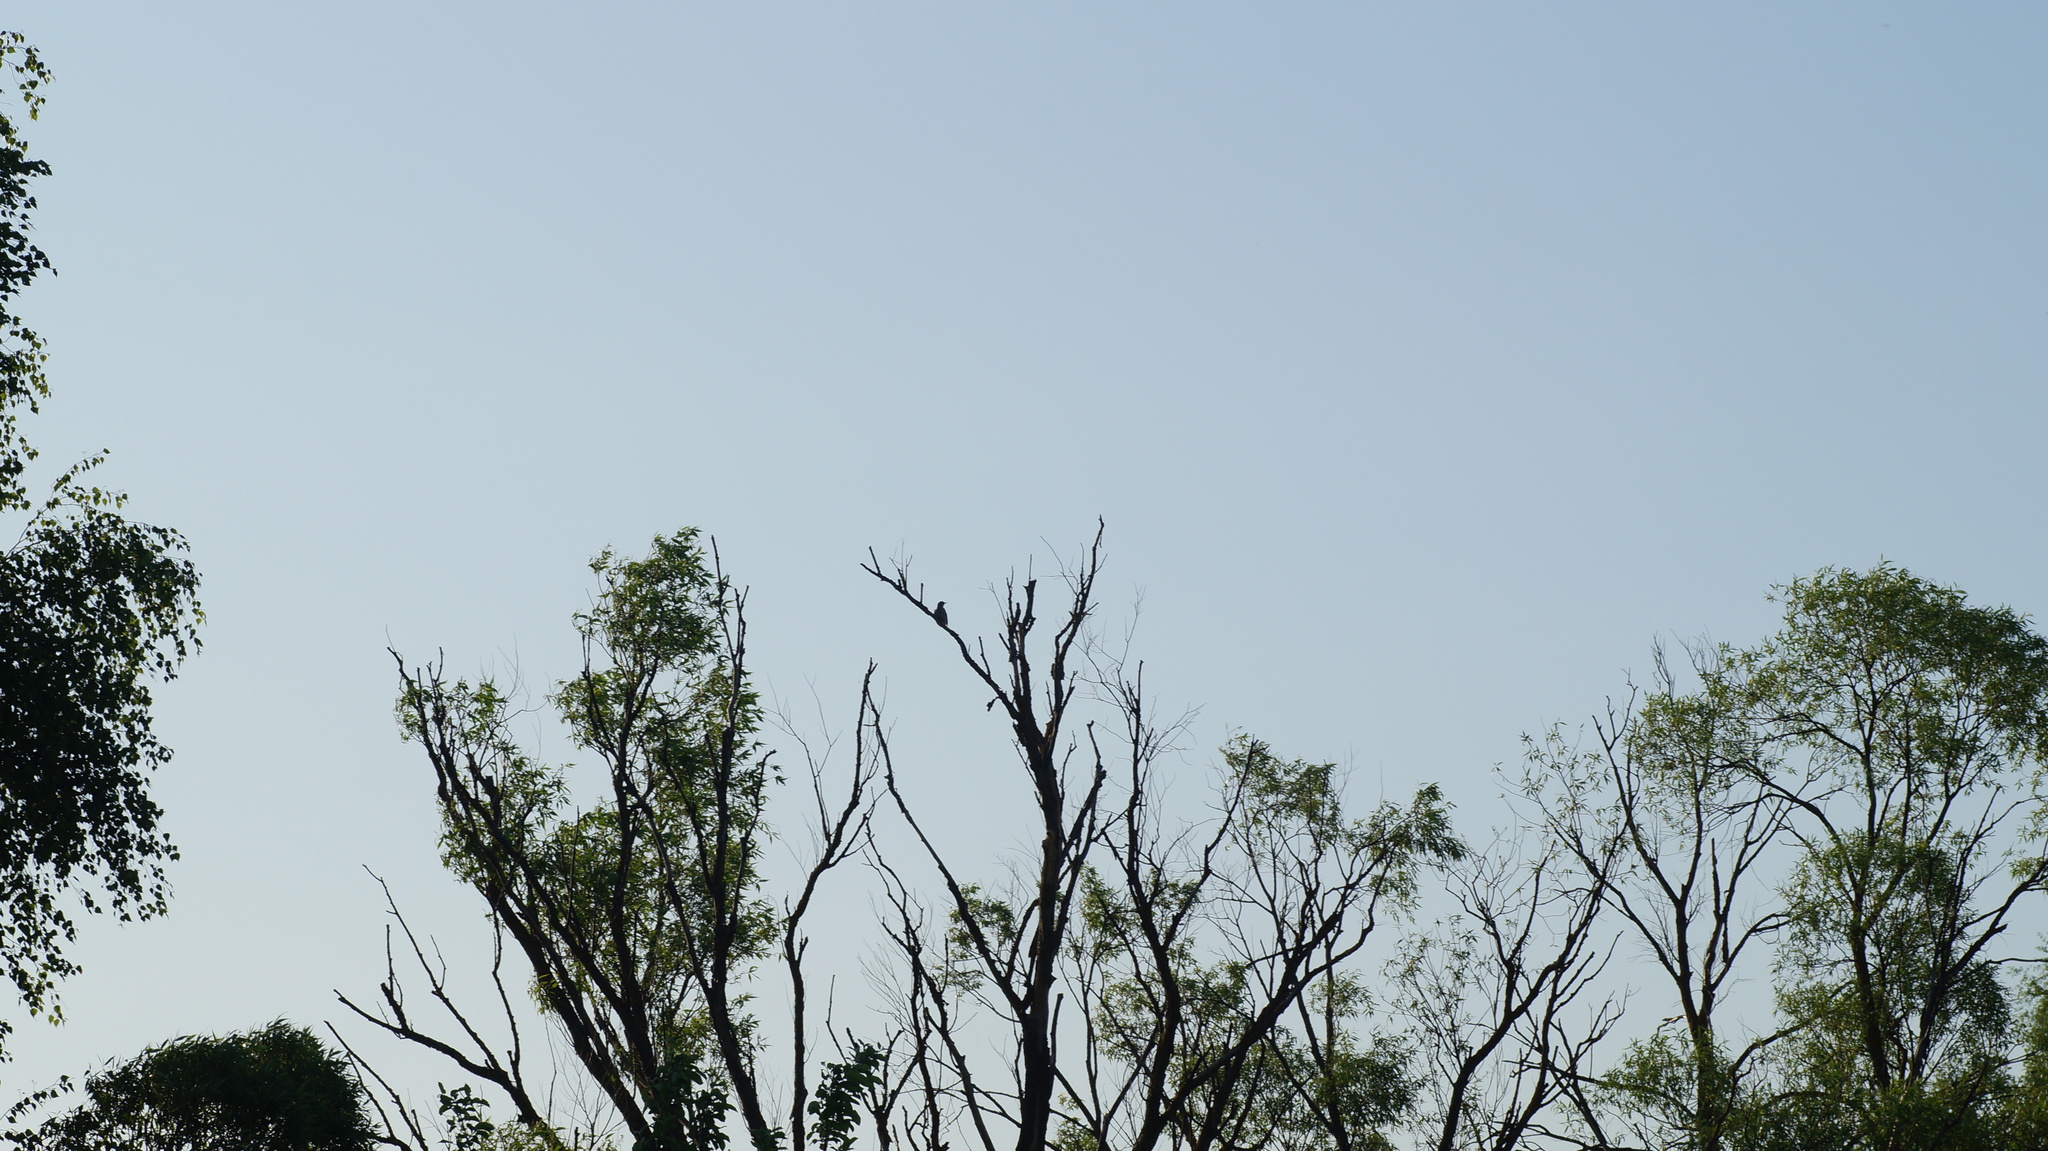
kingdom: Animalia
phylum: Chordata
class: Aves
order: Passeriformes
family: Sturnidae
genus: Sturnus
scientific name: Sturnus vulgaris
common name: Common starling
